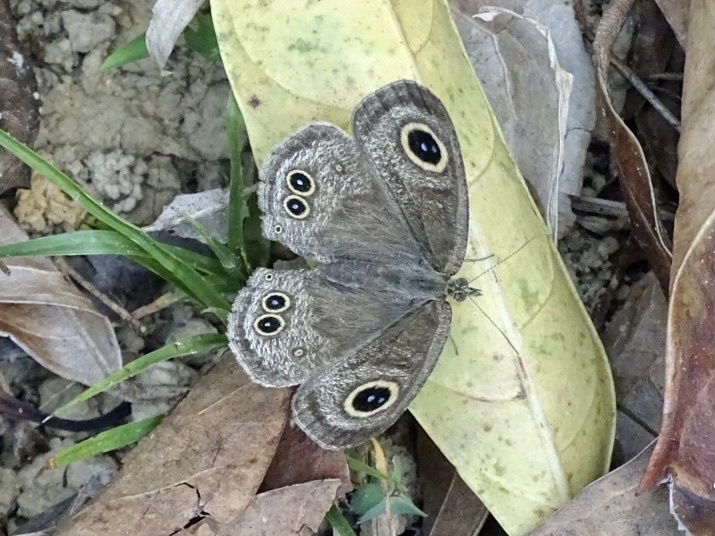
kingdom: Animalia
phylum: Arthropoda
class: Insecta
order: Lepidoptera
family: Nymphalidae
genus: Ypthima
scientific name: Ypthima baldus
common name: Common five-ring
